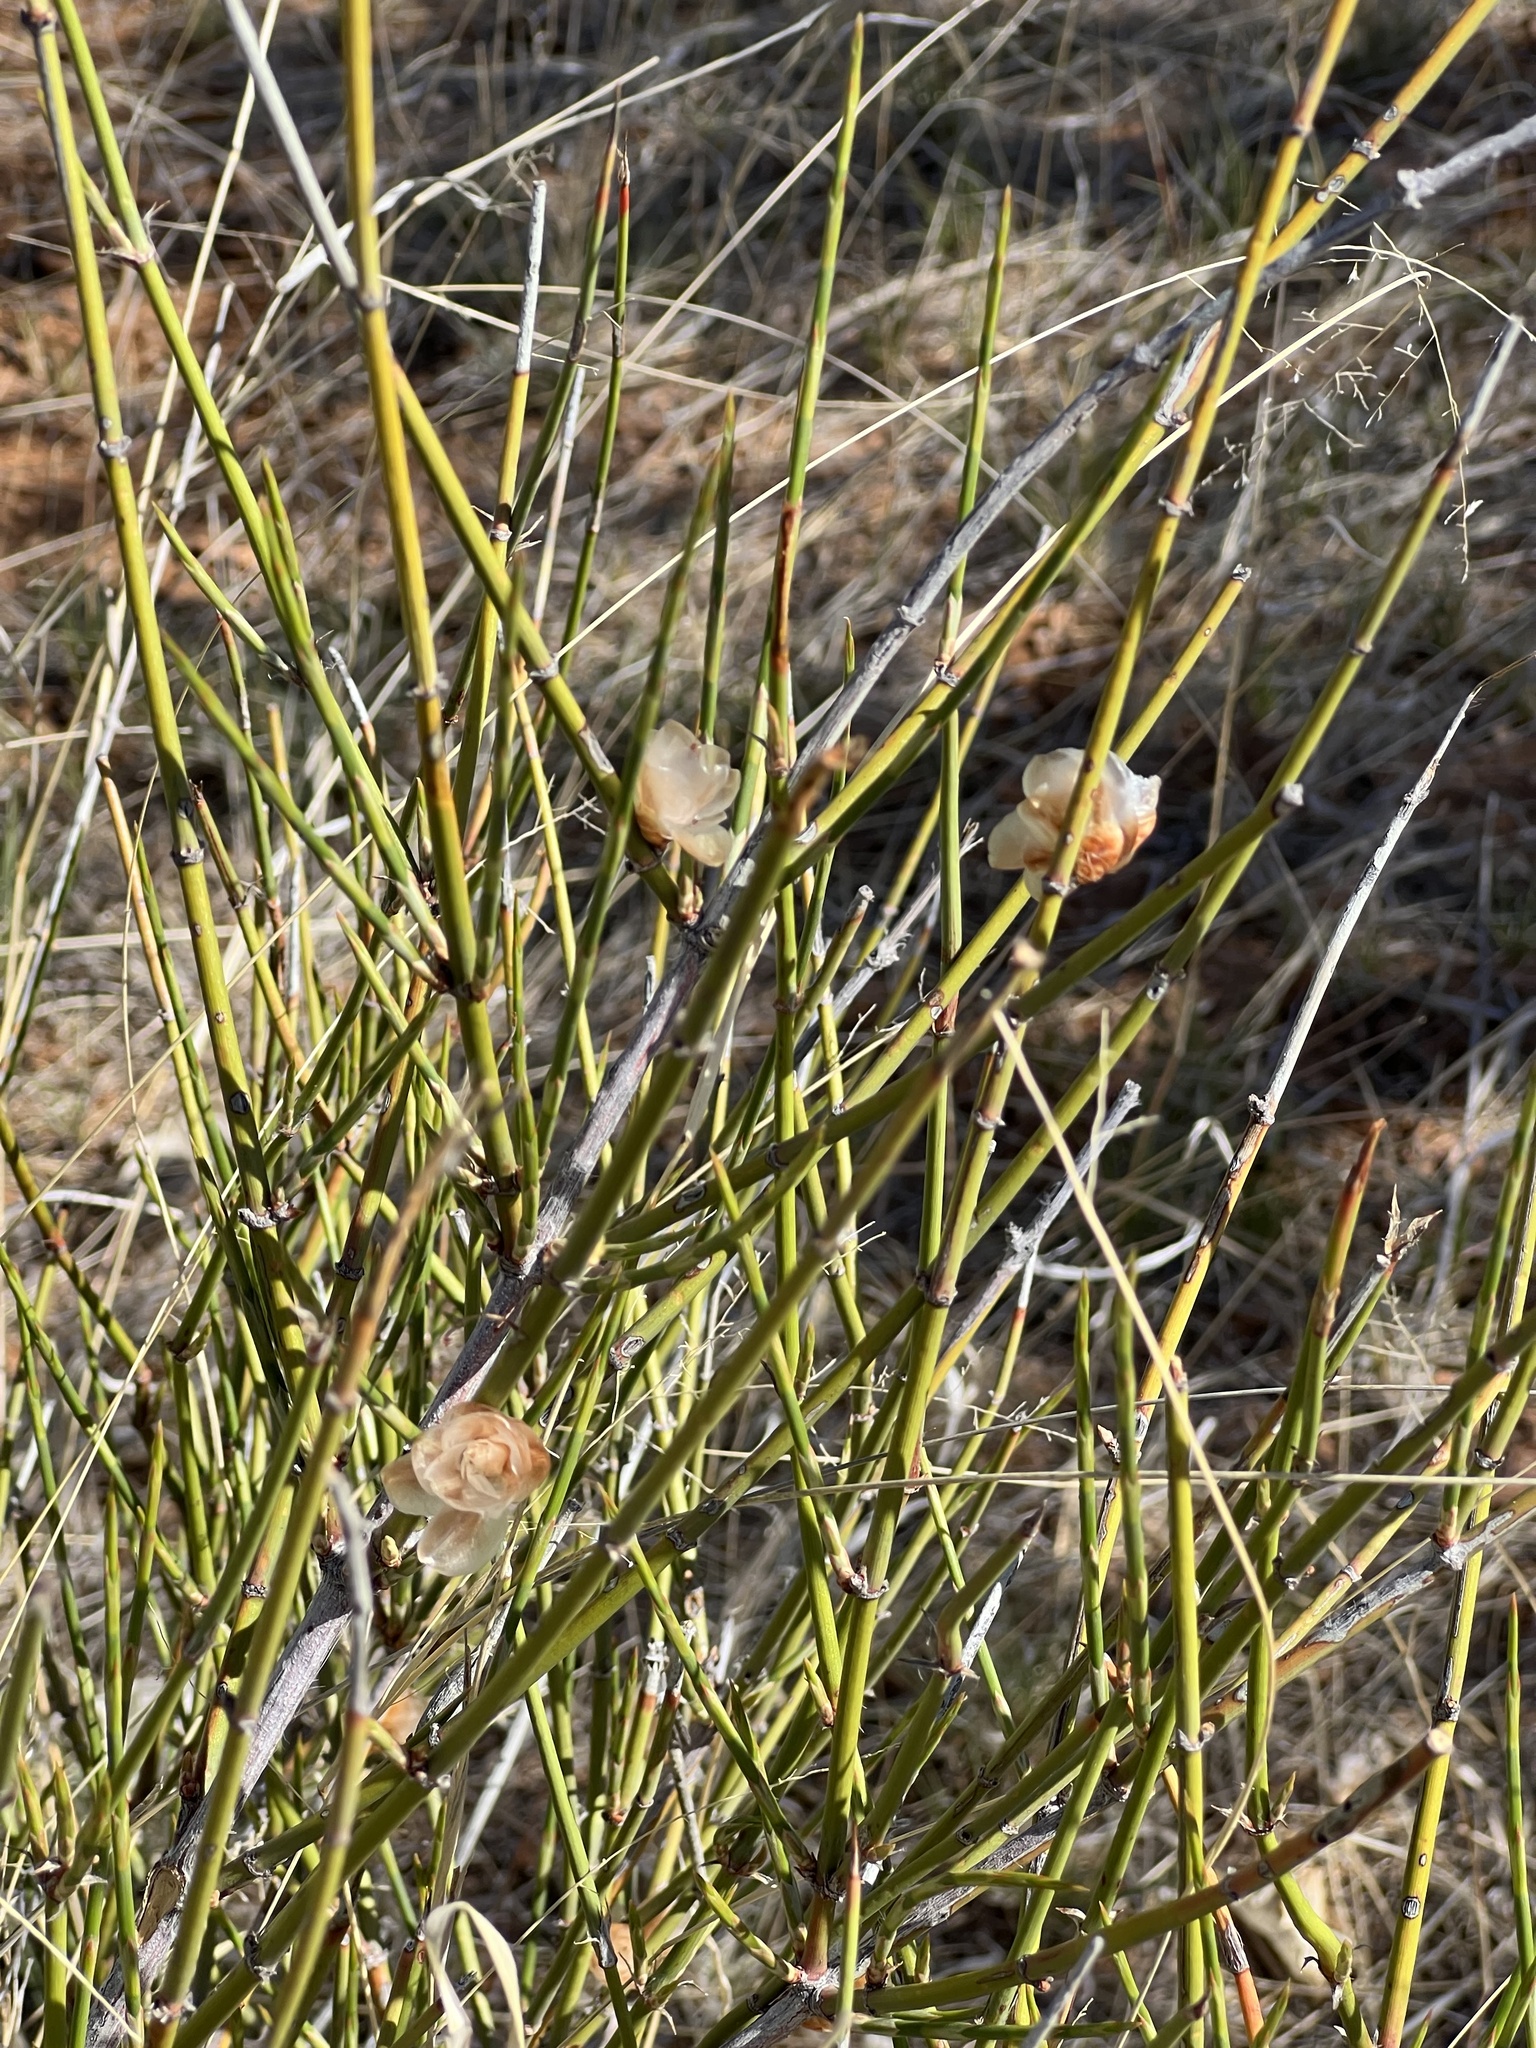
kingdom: Plantae
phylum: Tracheophyta
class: Gnetopsida
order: Ephedrales
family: Ephedraceae
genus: Ephedra
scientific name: Ephedra trifurca
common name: Mexican-tea
